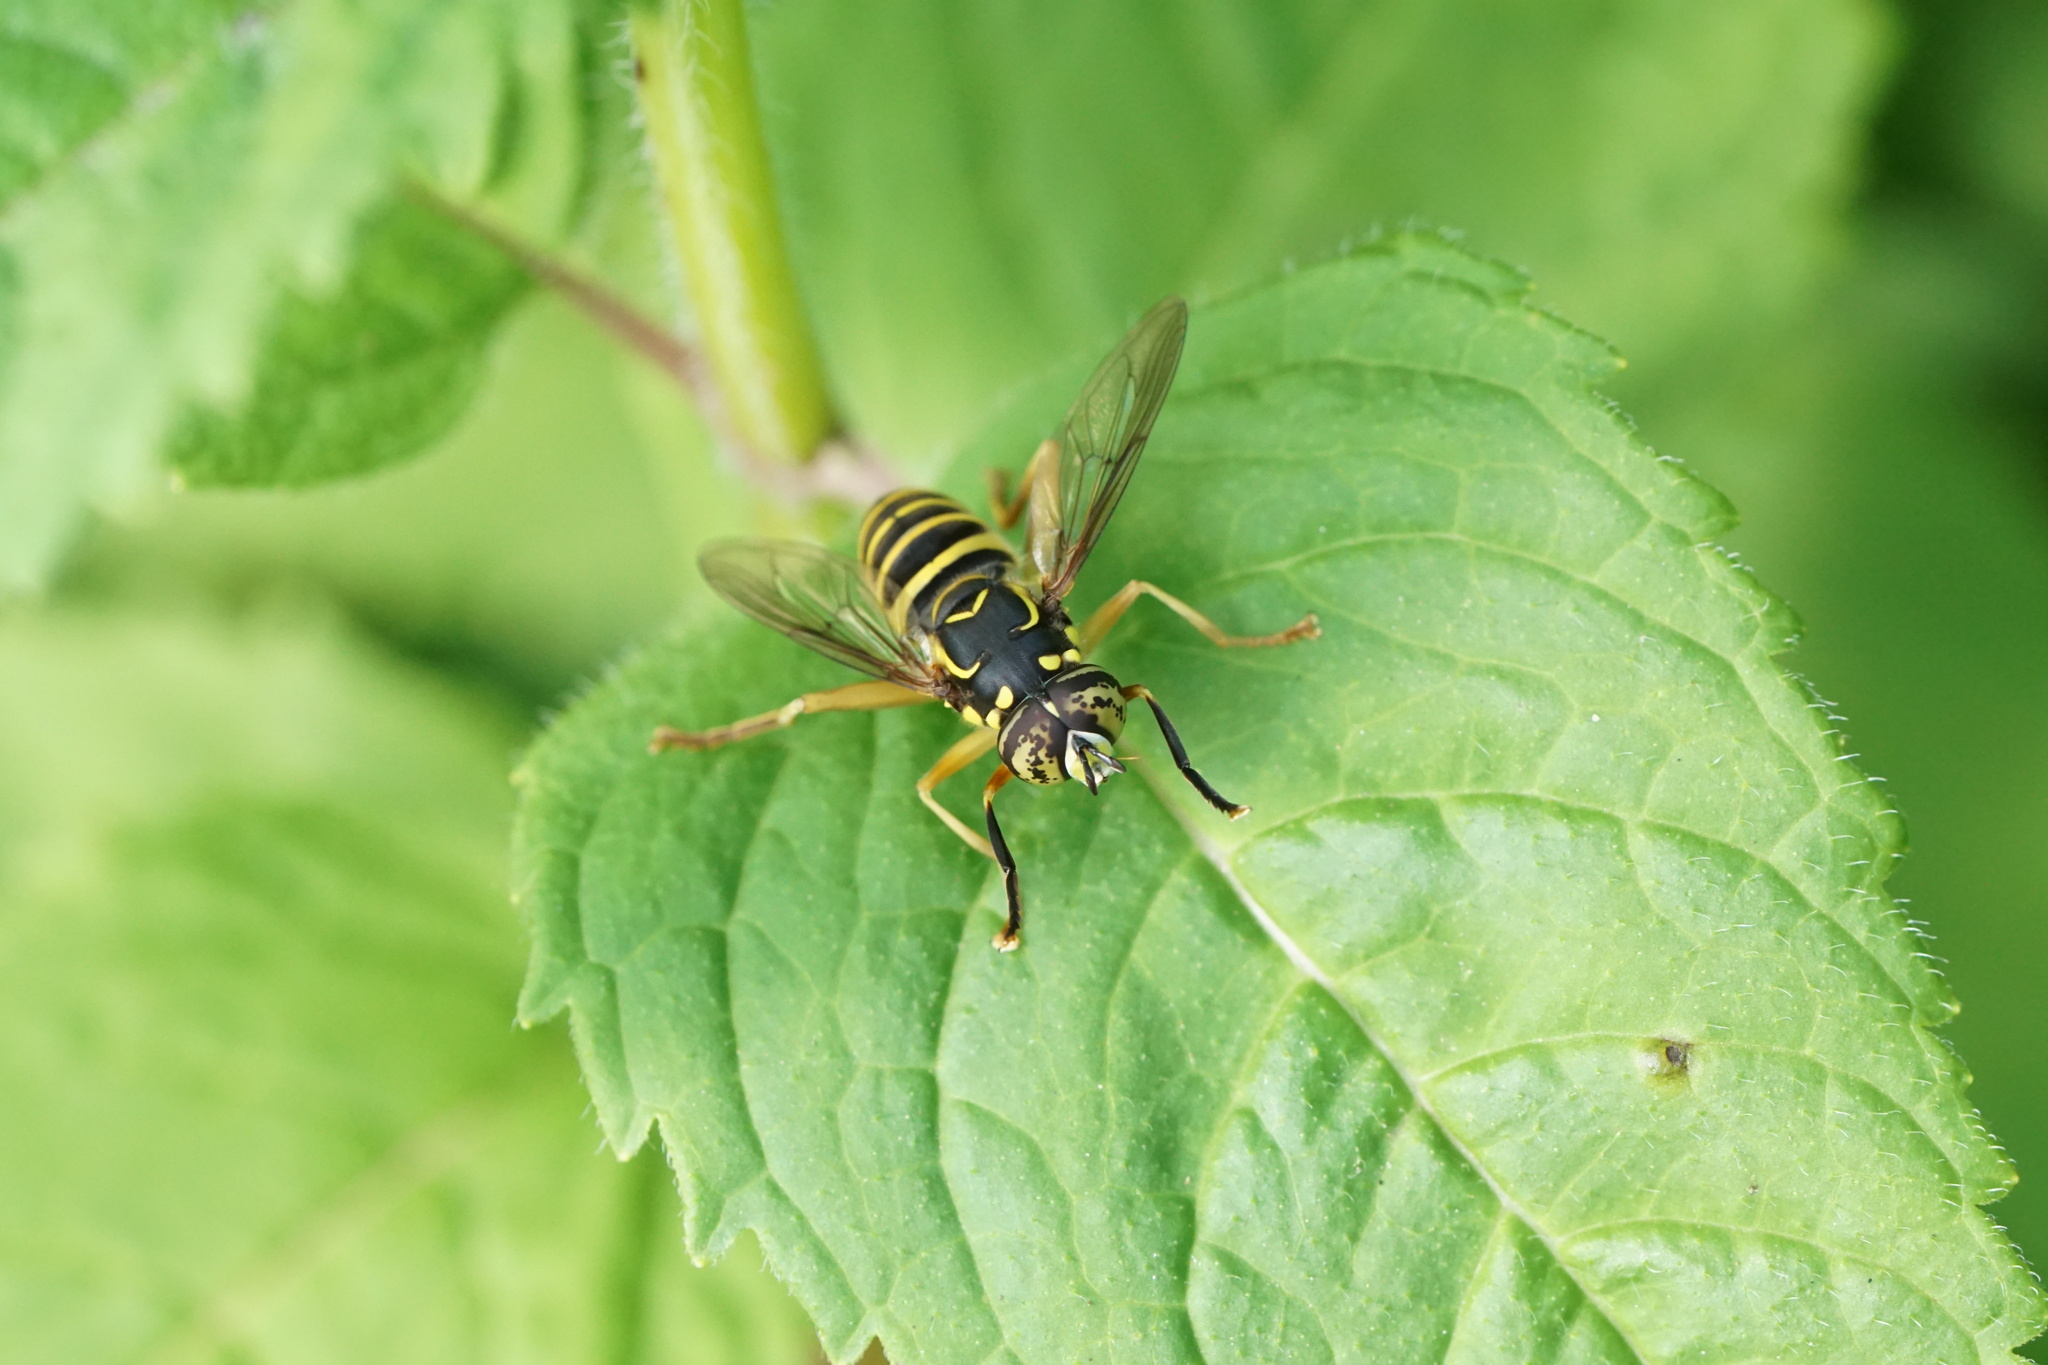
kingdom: Animalia
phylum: Arthropoda
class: Insecta
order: Diptera
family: Syrphidae
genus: Spilomyia
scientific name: Spilomyia longicornis
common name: Eastern hornet fly
